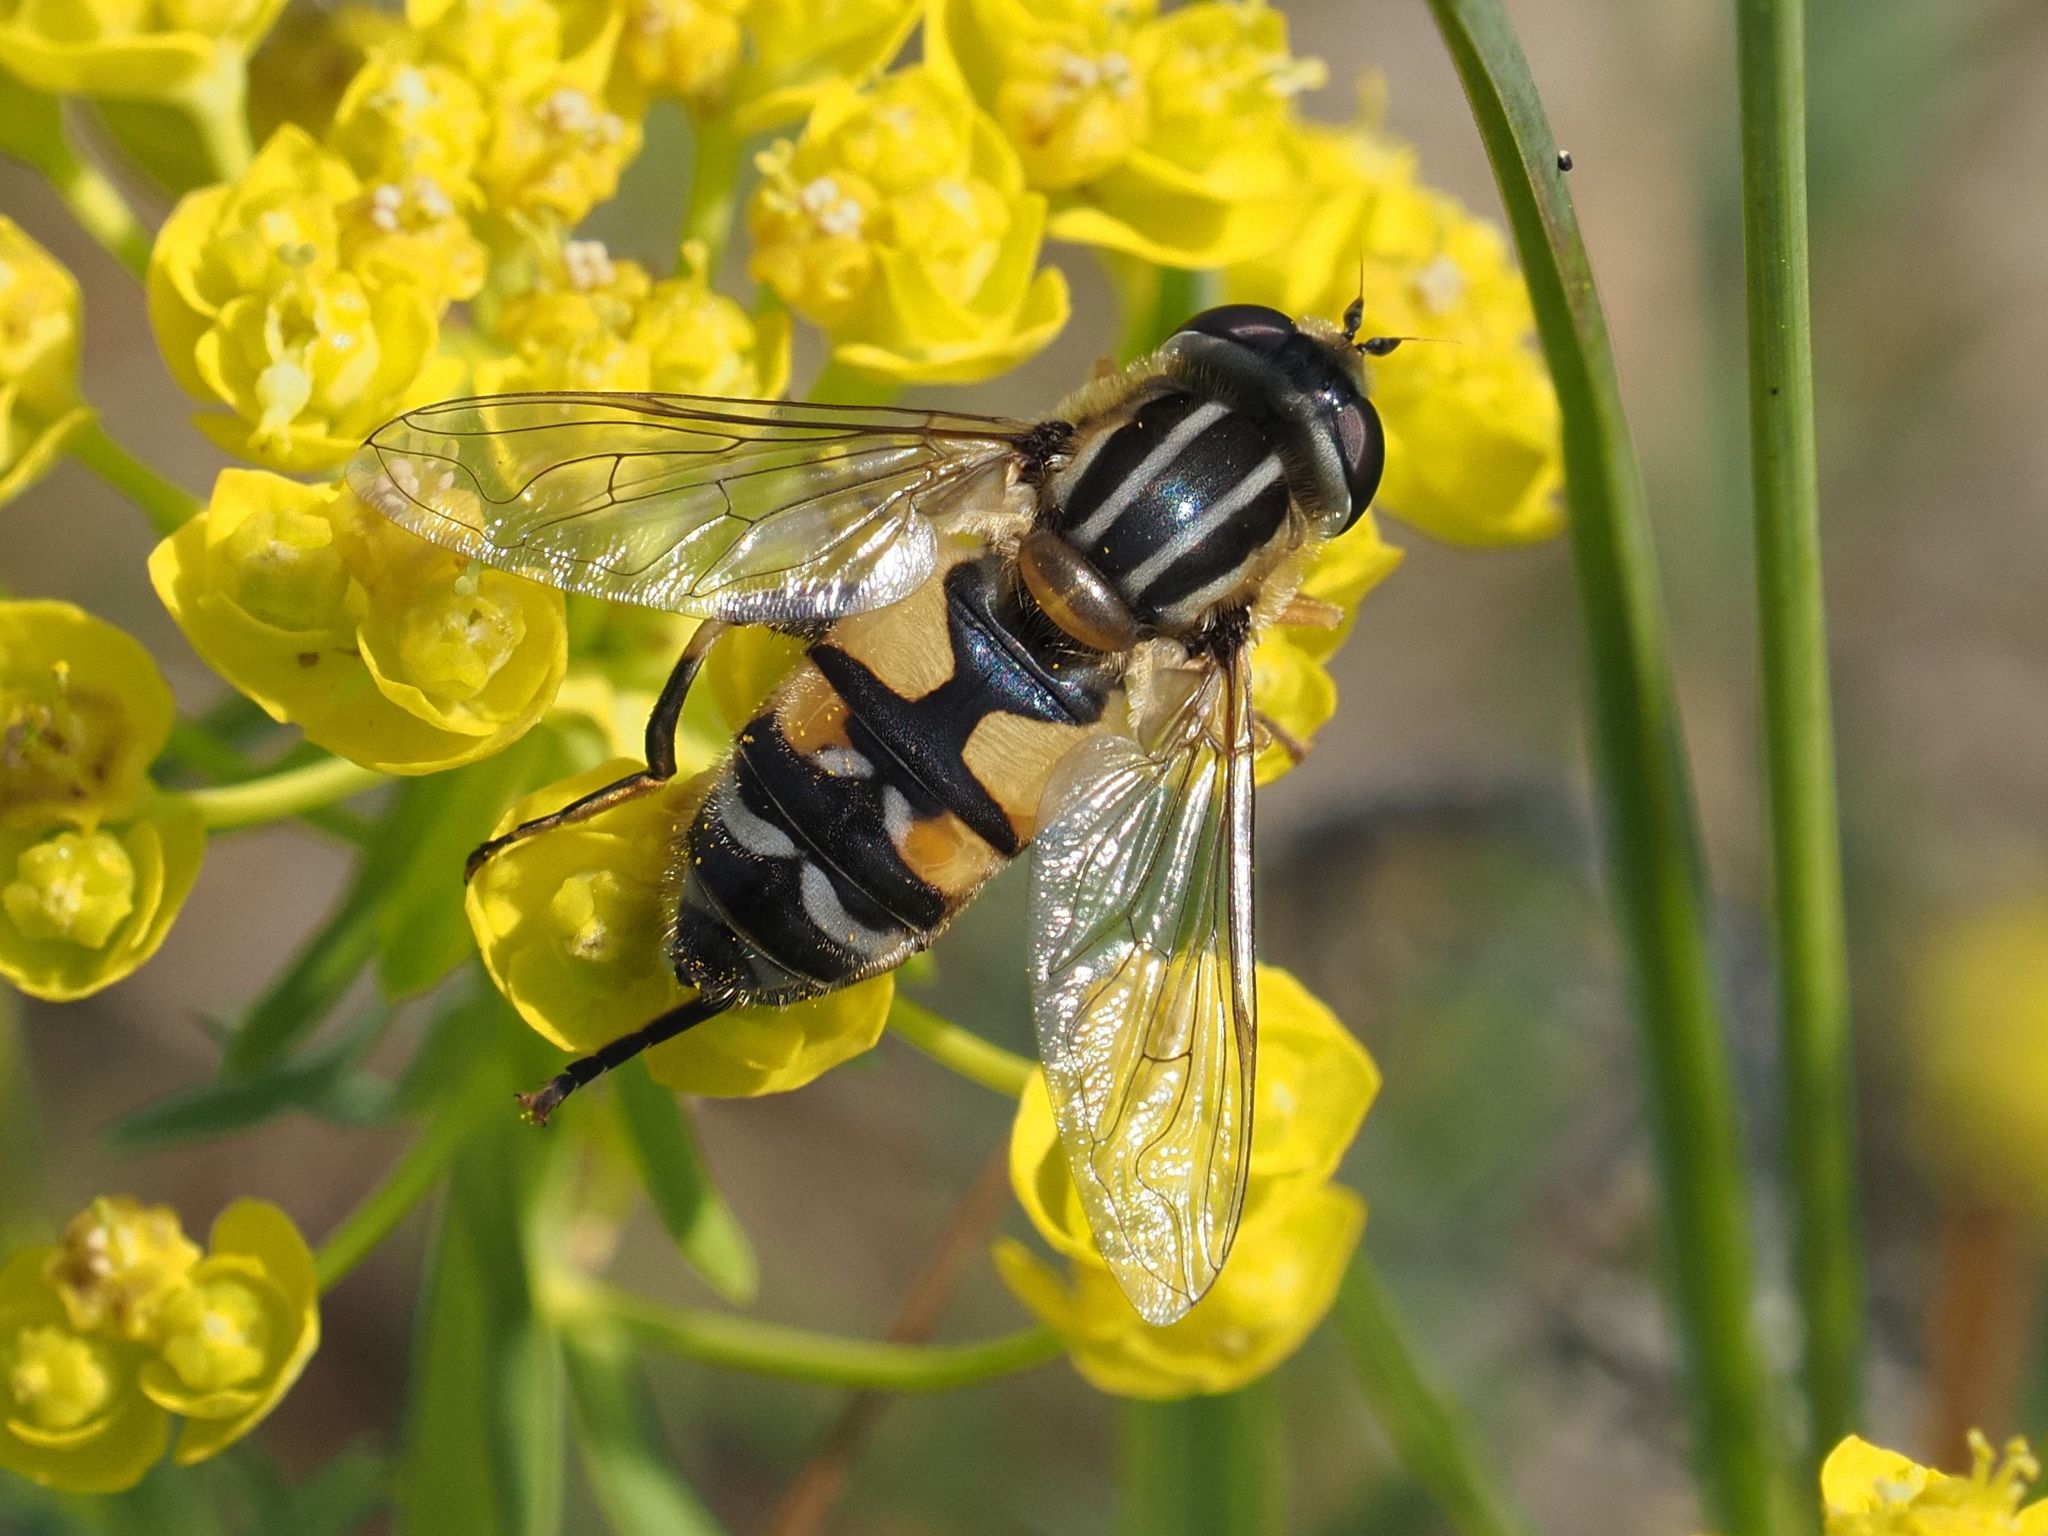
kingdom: Animalia
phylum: Arthropoda
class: Insecta
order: Diptera
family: Syrphidae
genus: Helophilus
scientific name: Helophilus trivittatus
